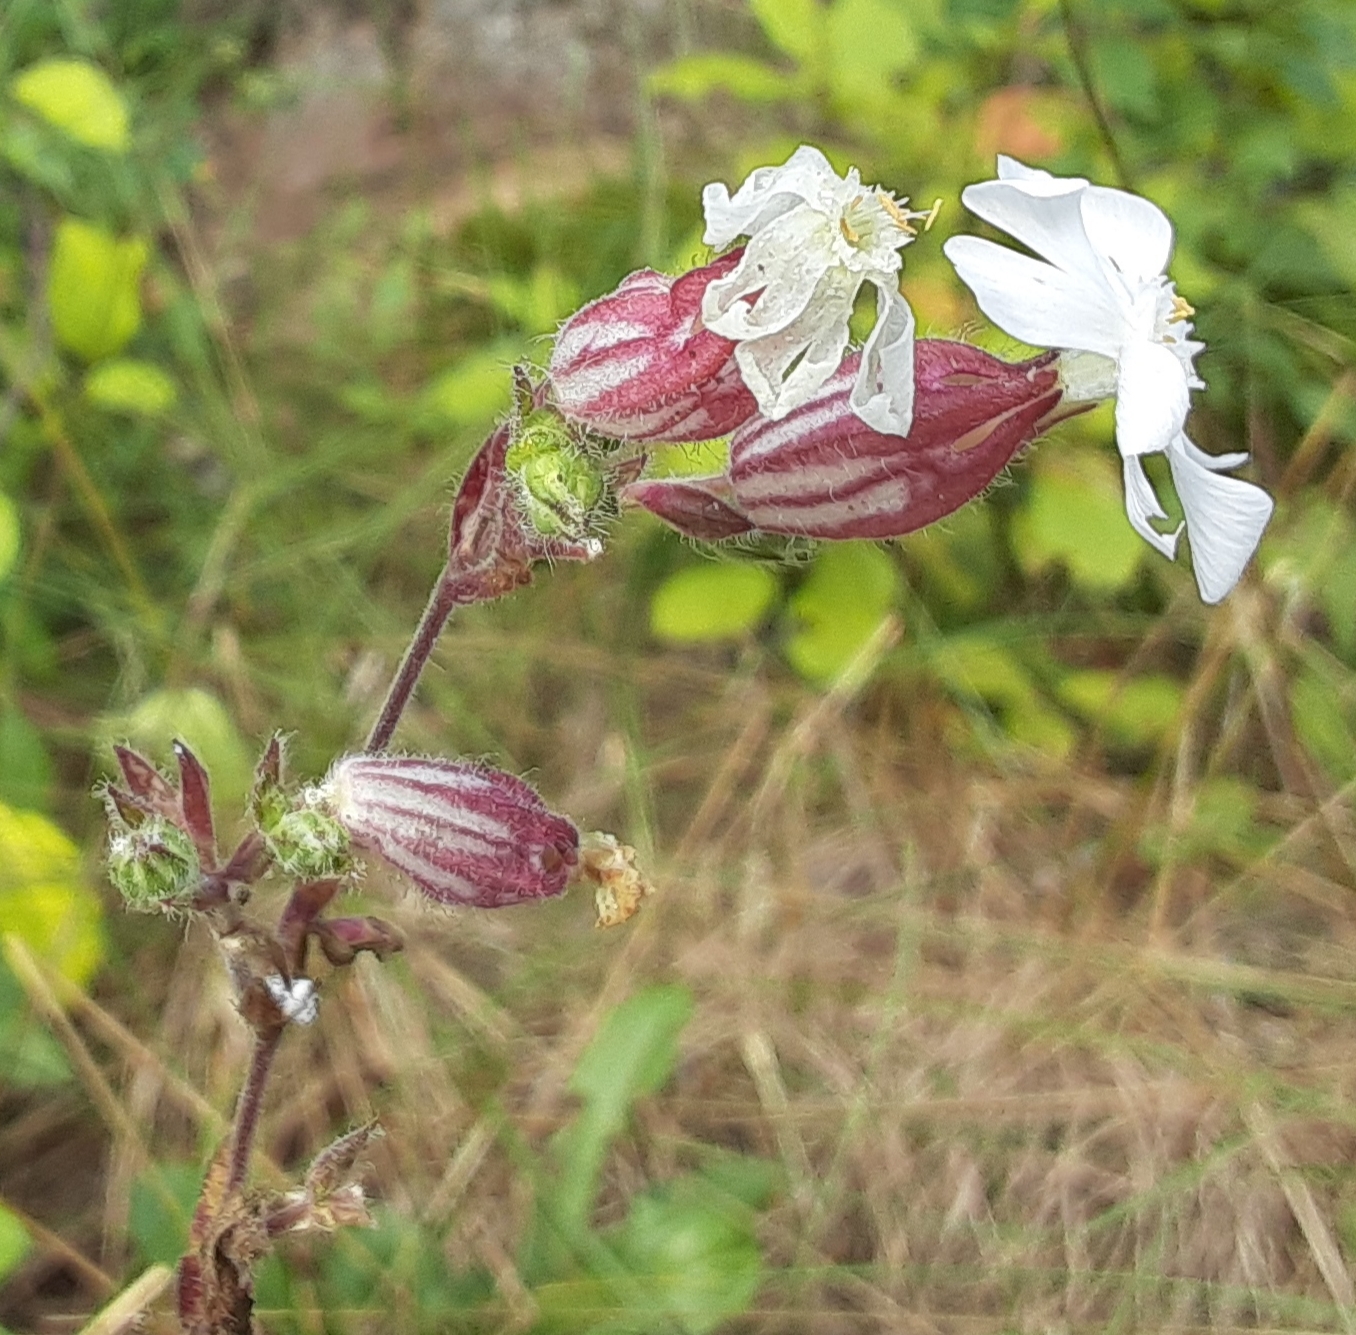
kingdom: Plantae
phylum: Tracheophyta
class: Magnoliopsida
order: Caryophyllales
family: Caryophyllaceae
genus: Silene
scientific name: Silene latifolia
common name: White campion
